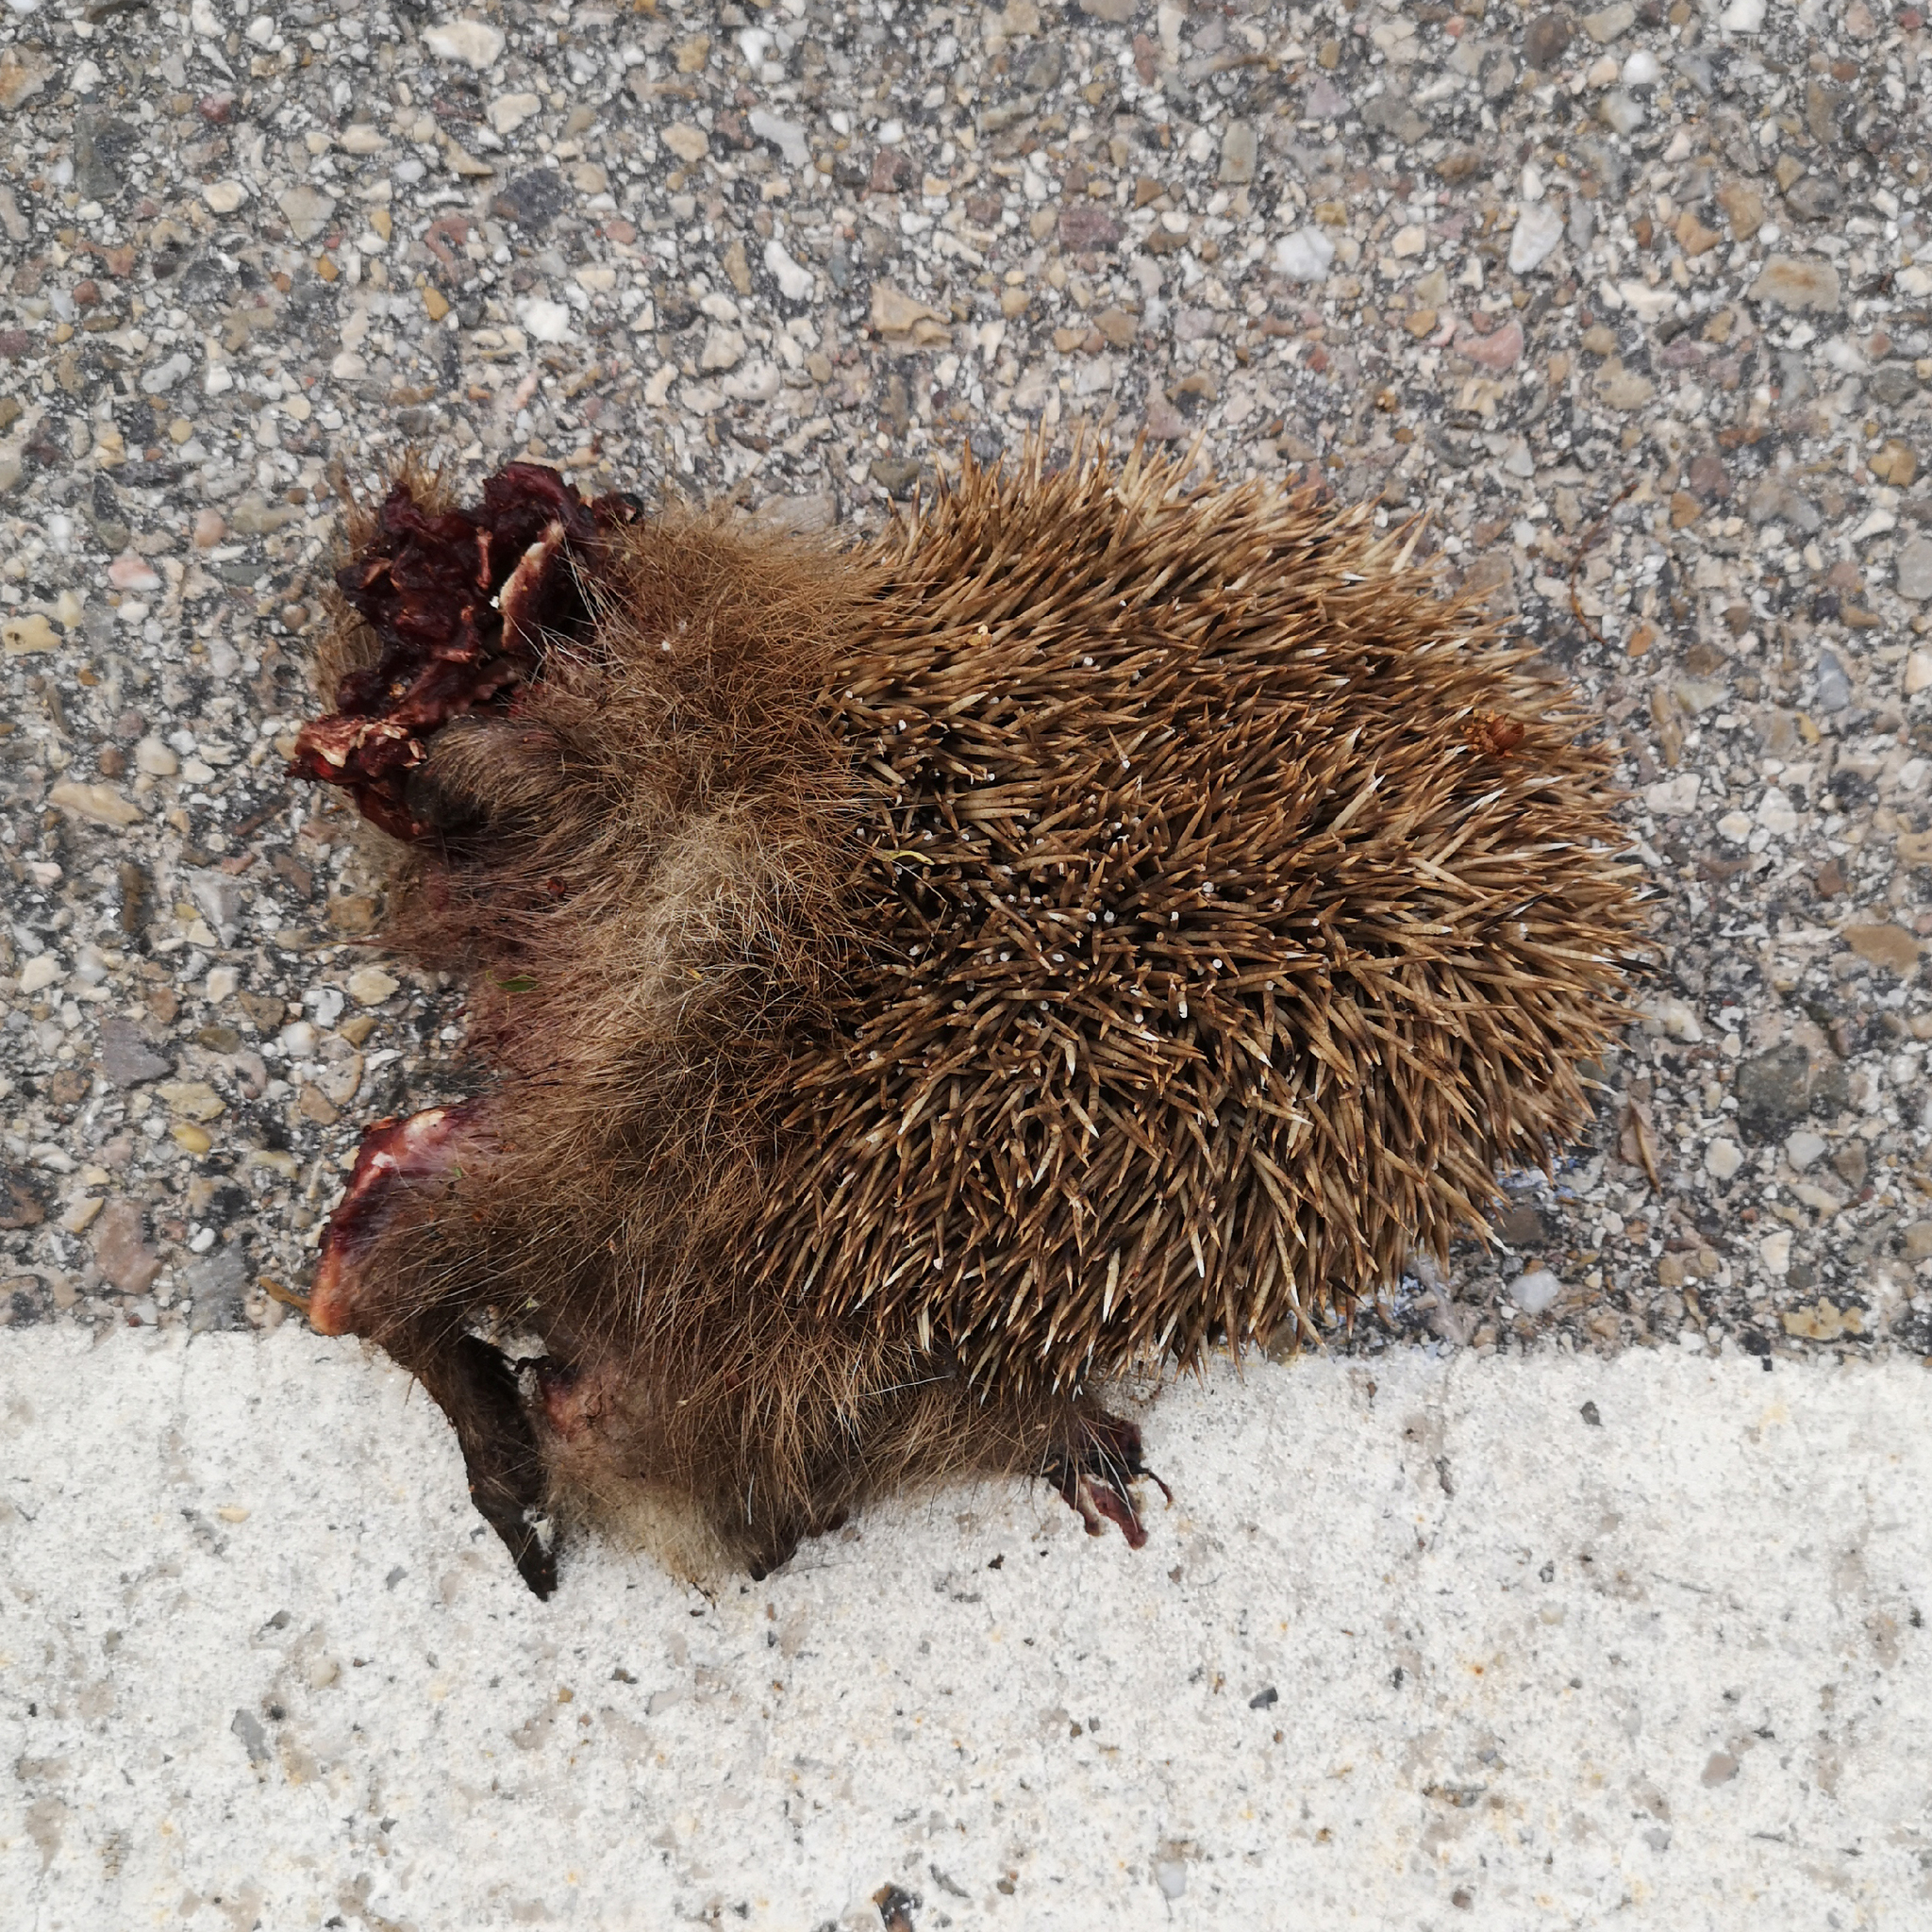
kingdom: Animalia
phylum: Chordata
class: Mammalia
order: Erinaceomorpha
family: Erinaceidae
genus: Erinaceus
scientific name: Erinaceus europaeus
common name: West european hedgehog
